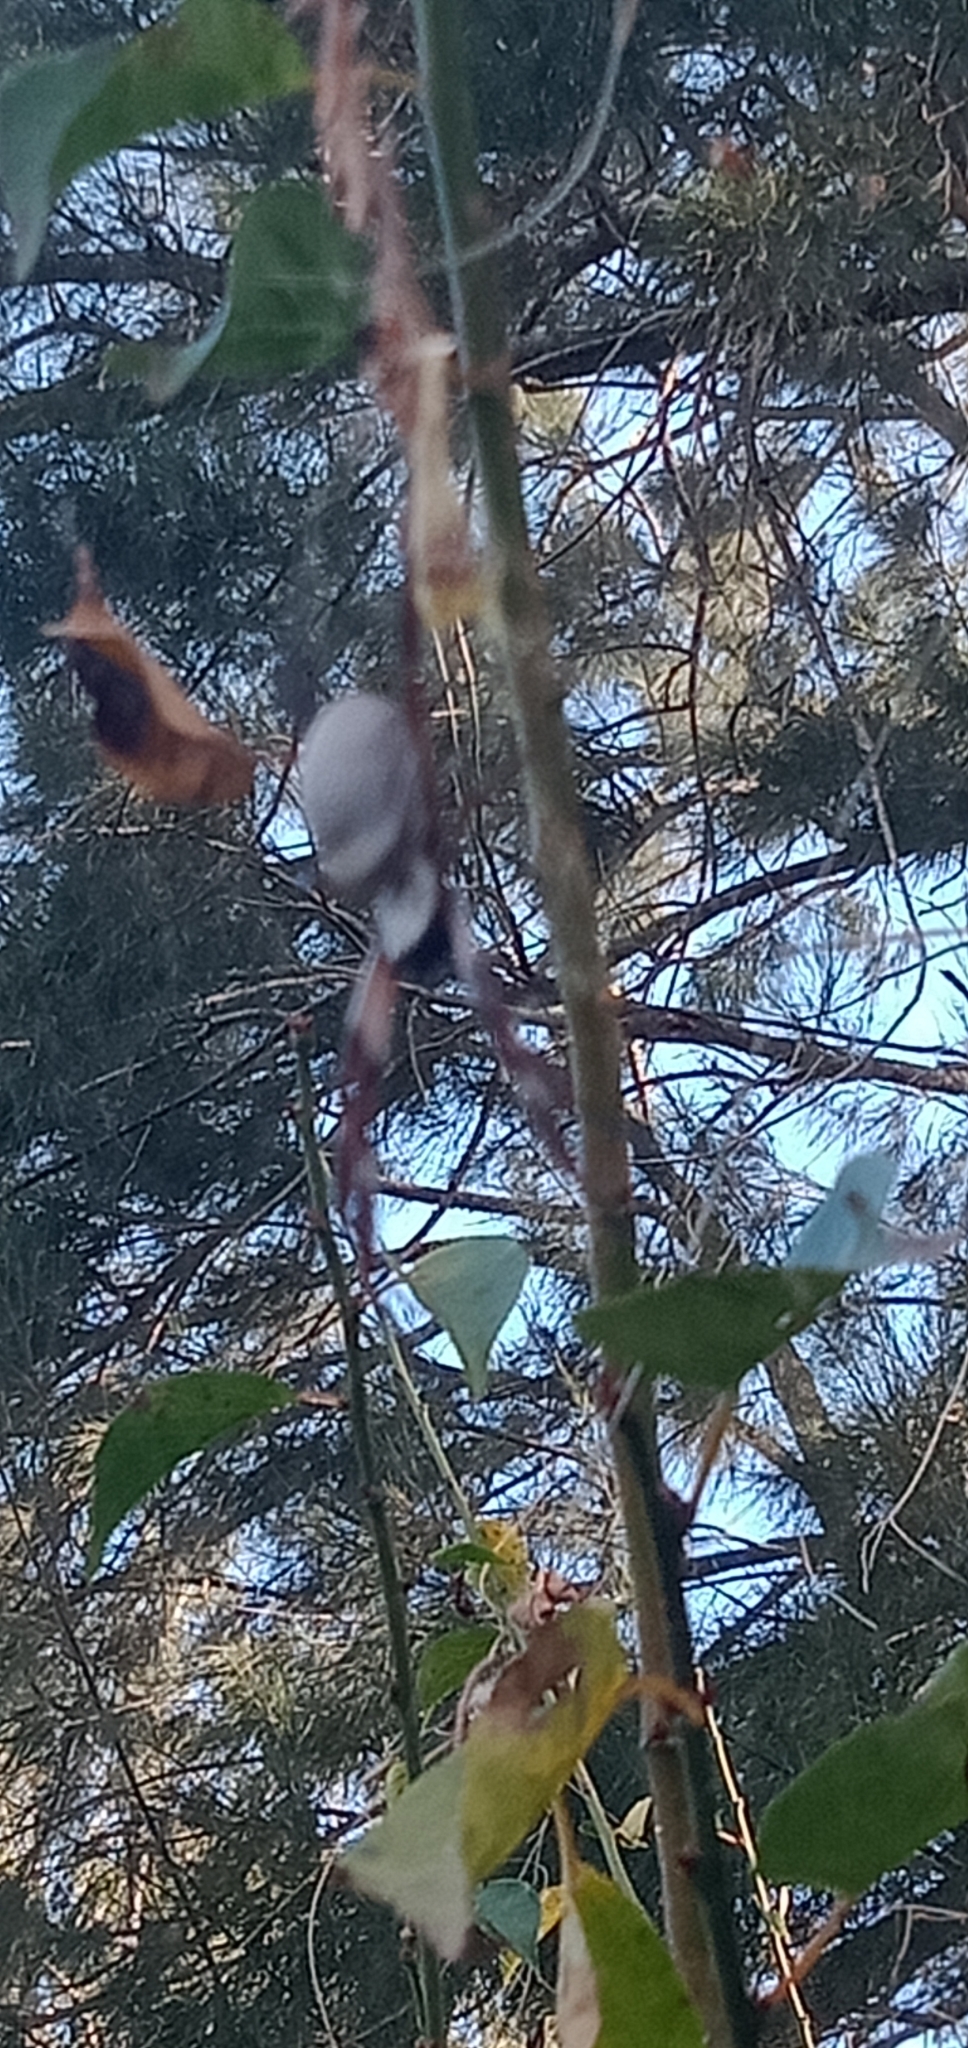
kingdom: Animalia
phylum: Arthropoda
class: Arachnida
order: Araneae
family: Araneidae
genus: Trichonephila
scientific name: Trichonephila edulis
